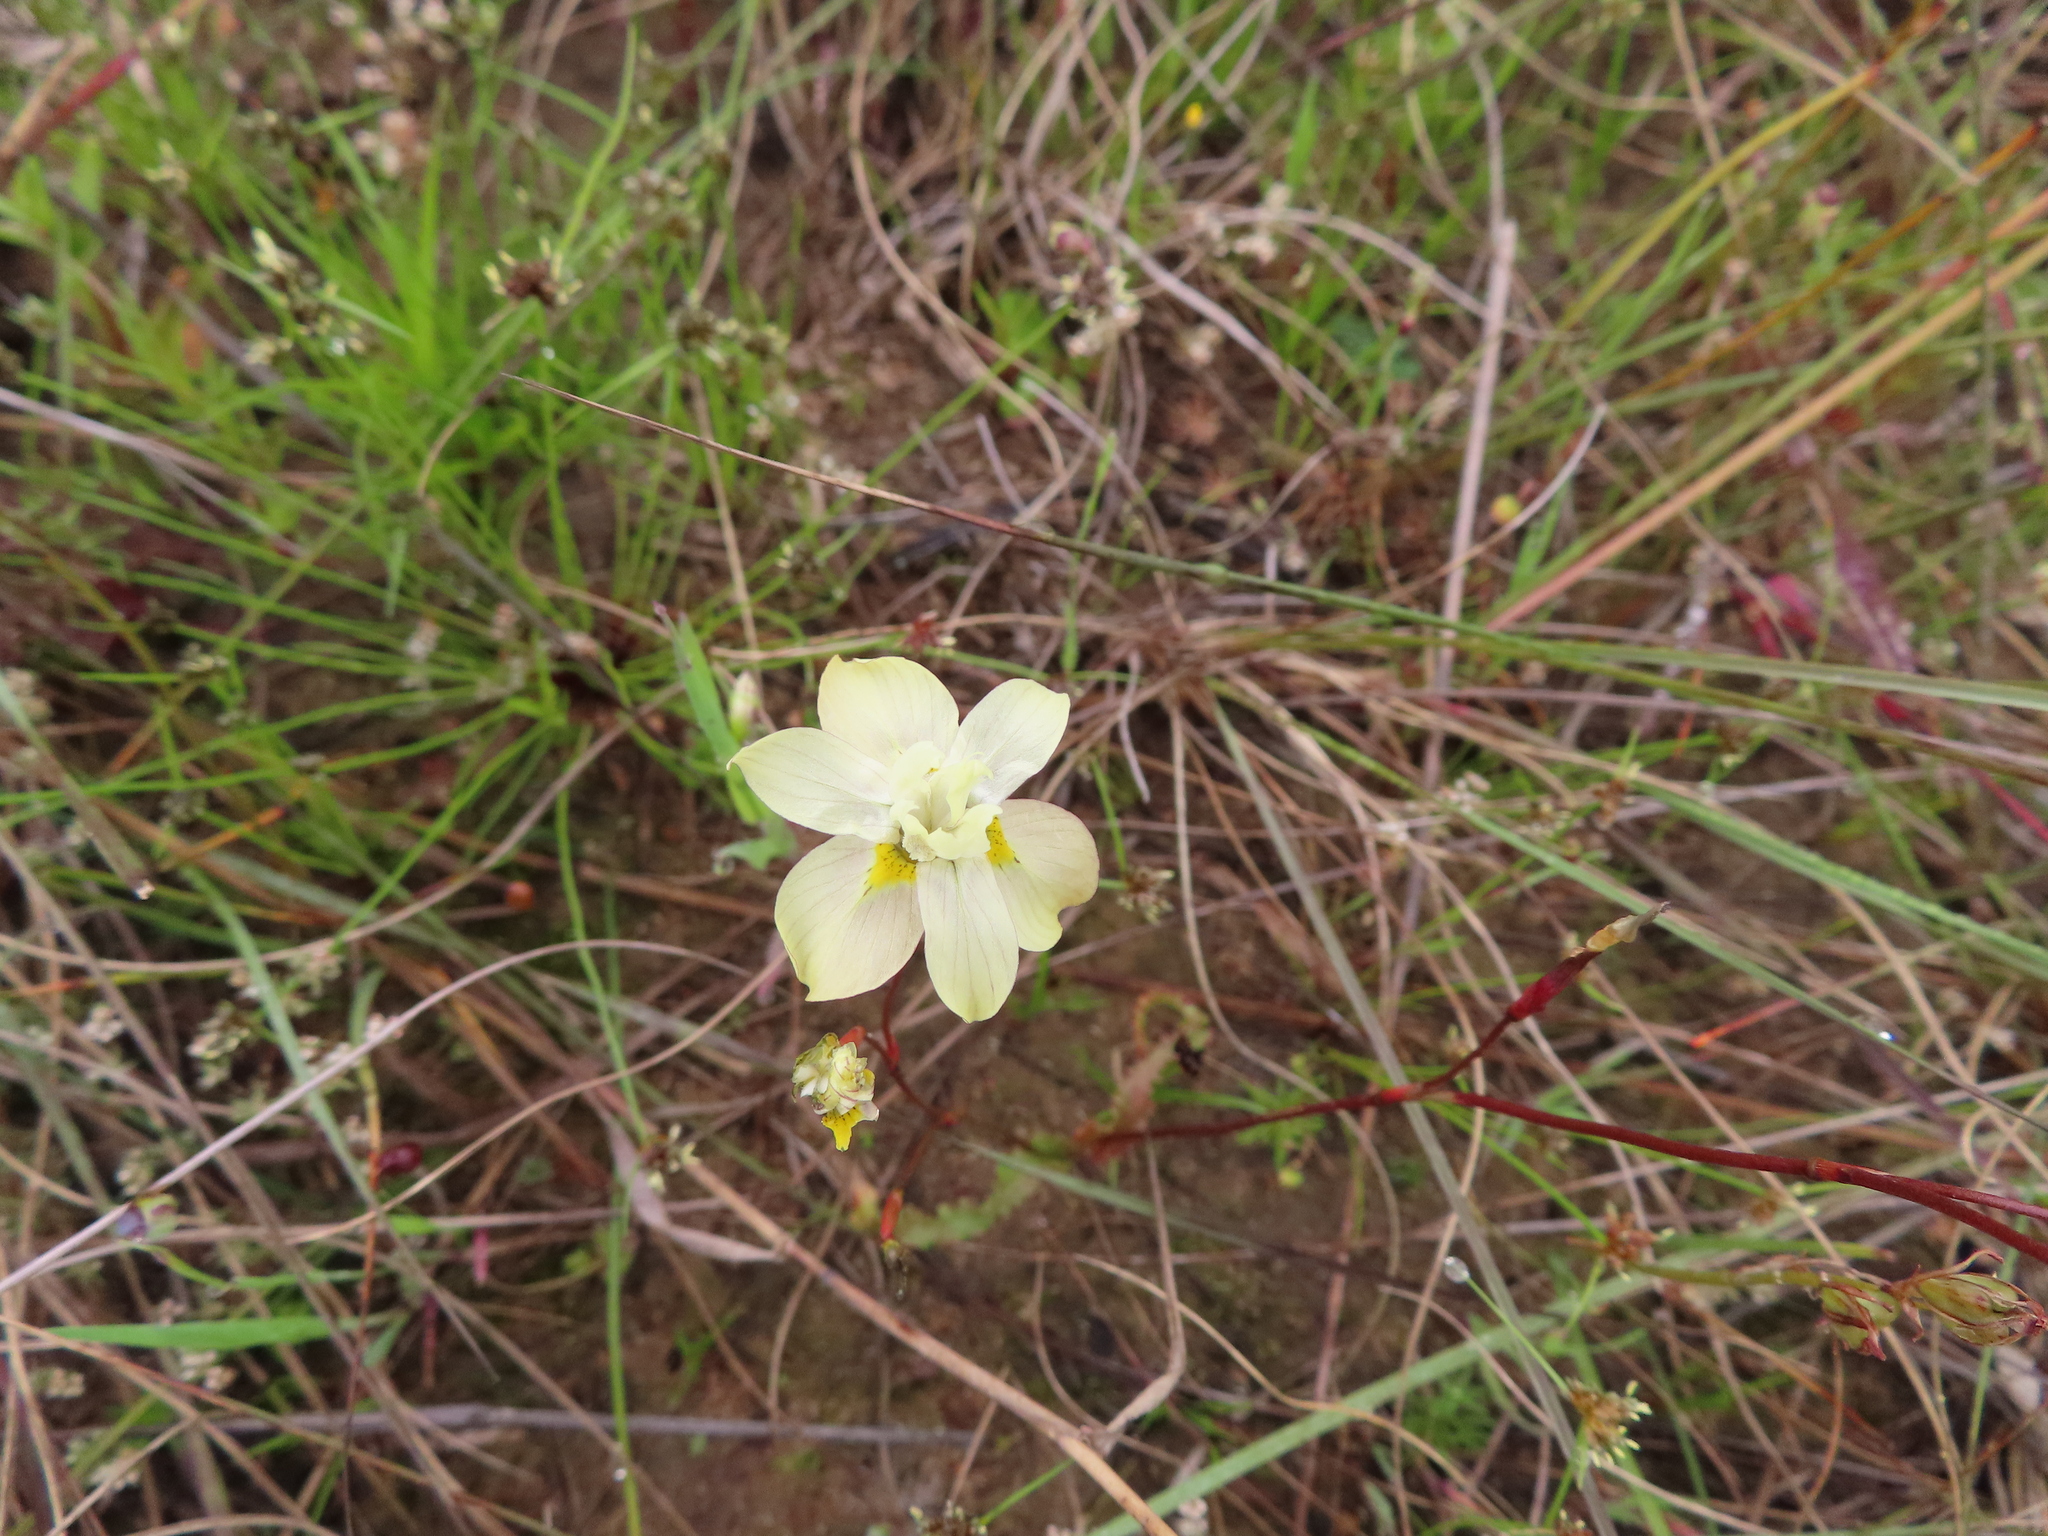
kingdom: Plantae
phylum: Tracheophyta
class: Liliopsida
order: Asparagales
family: Iridaceae
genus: Moraea
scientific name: Moraea gawleri
